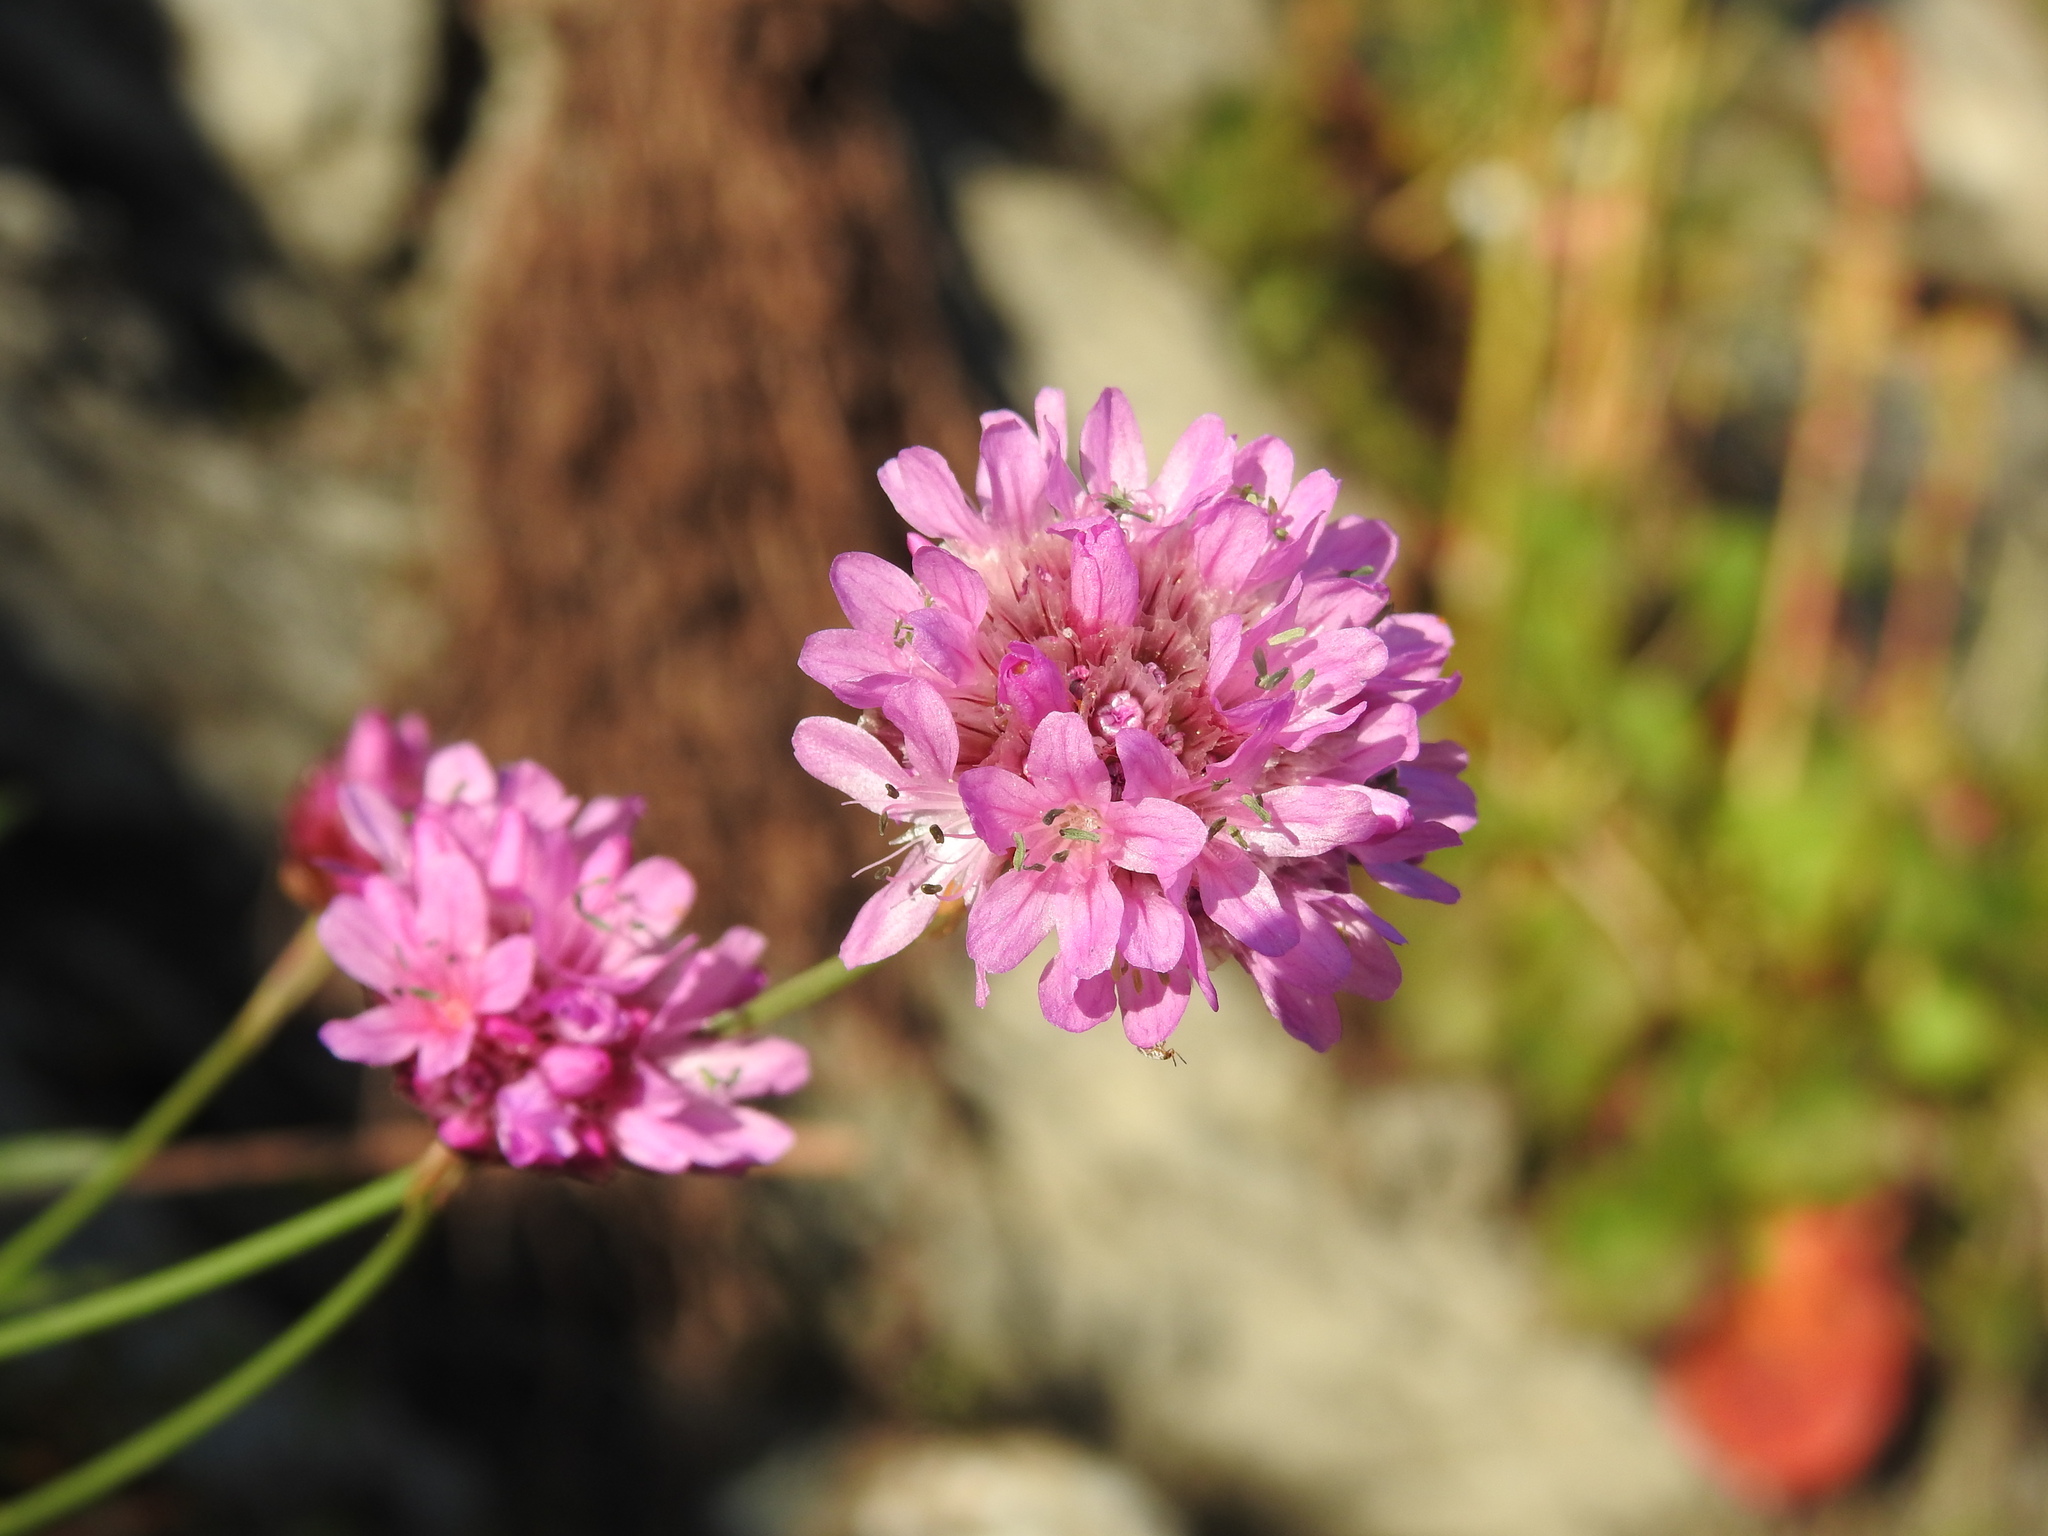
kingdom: Plantae
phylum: Tracheophyta
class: Magnoliopsida
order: Caryophyllales
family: Plumbaginaceae
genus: Armeria
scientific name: Armeria alpina
